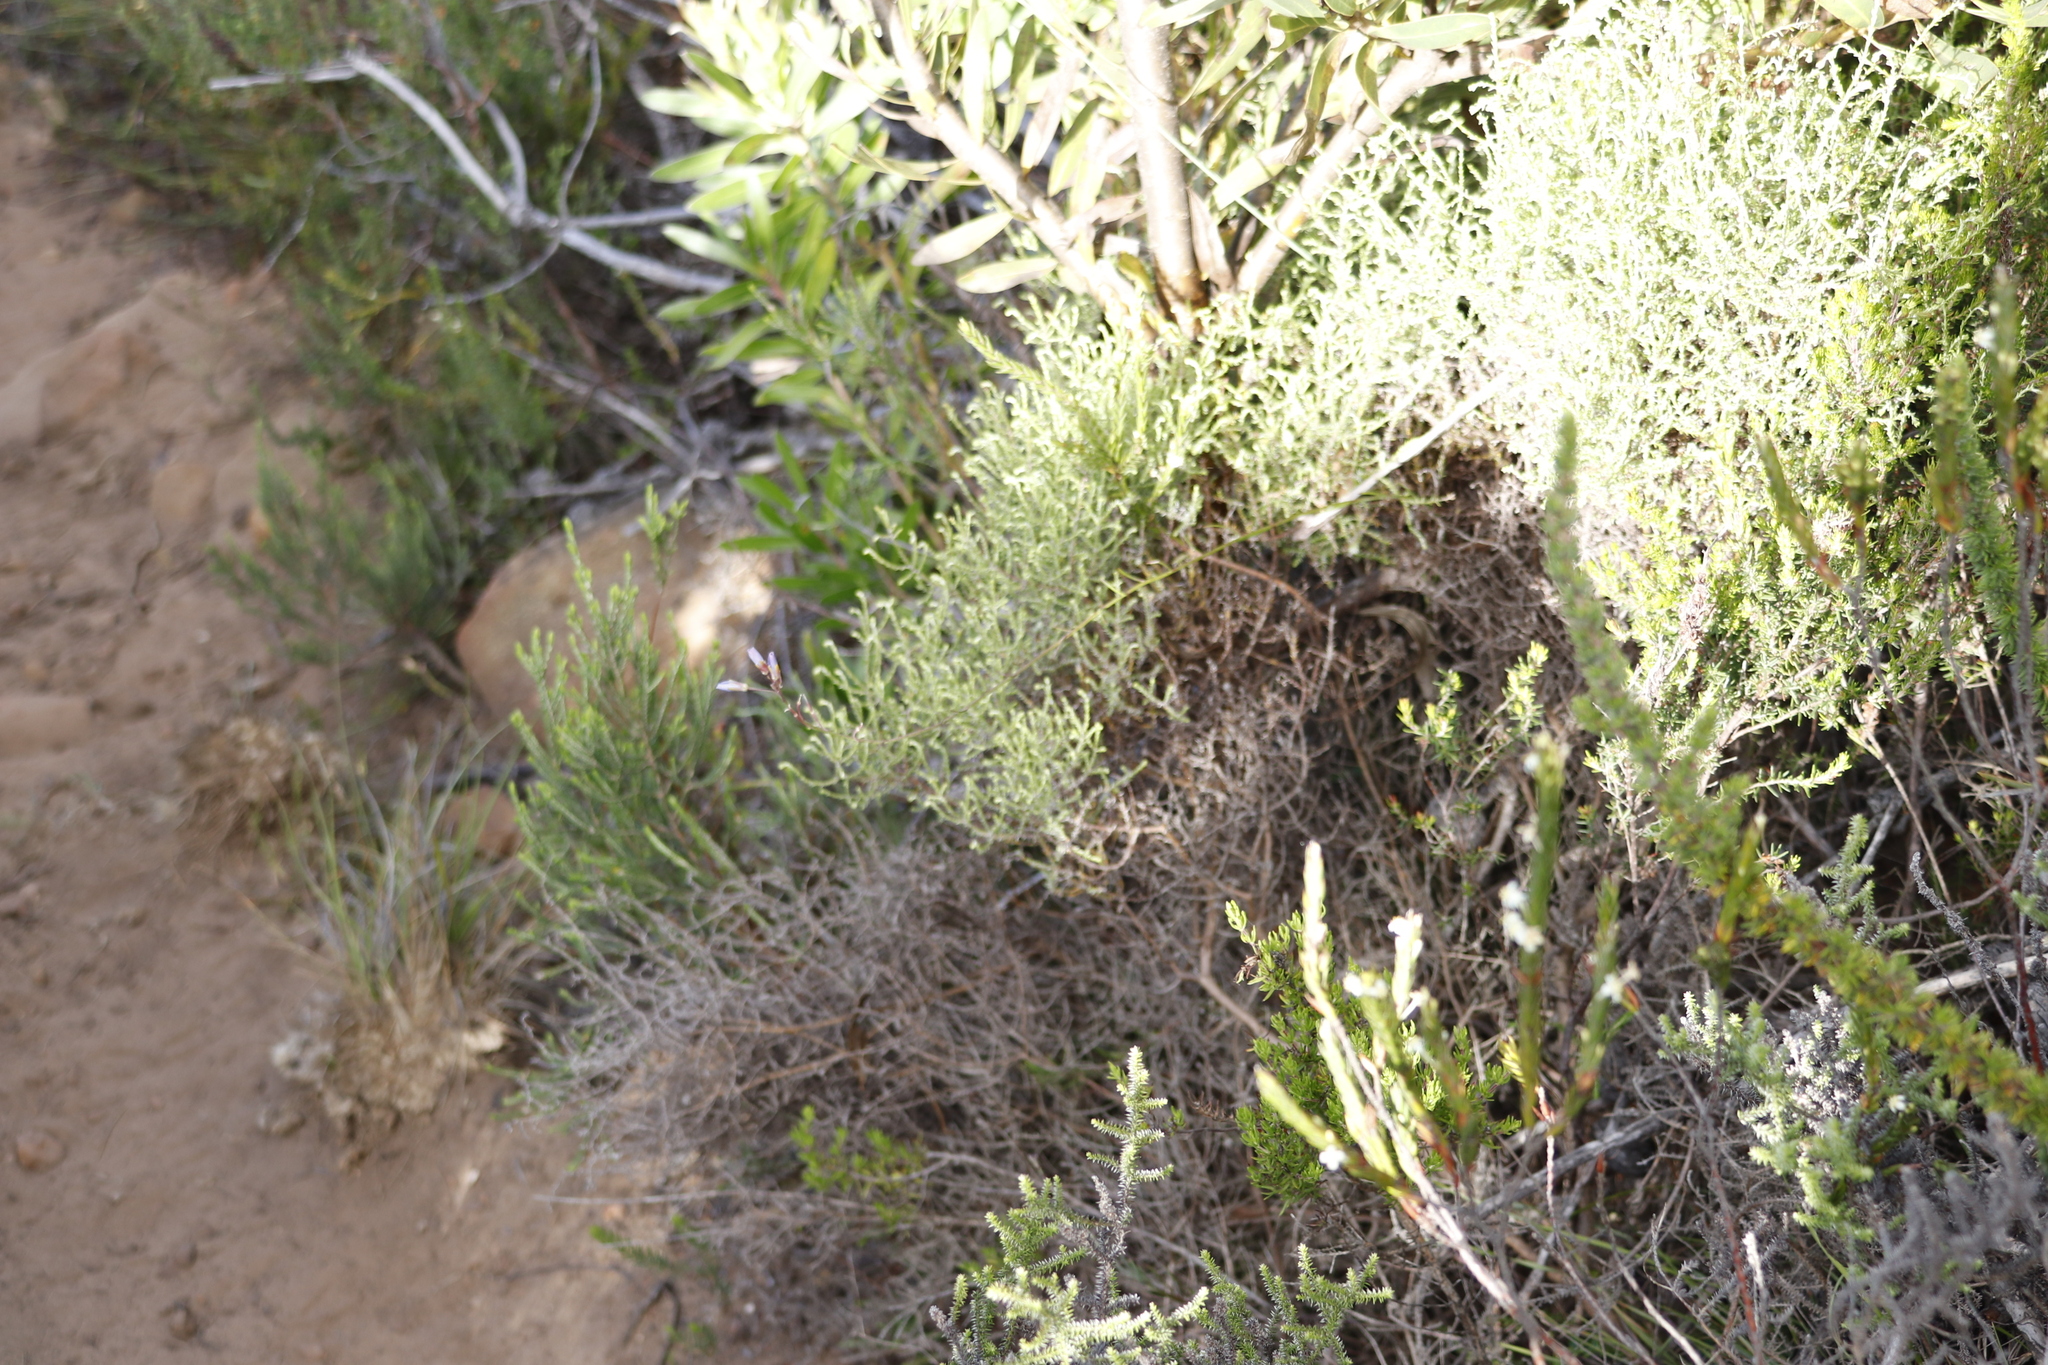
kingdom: Plantae
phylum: Tracheophyta
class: Magnoliopsida
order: Brassicales
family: Brassicaceae
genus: Heliophila
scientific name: Heliophila linearis
